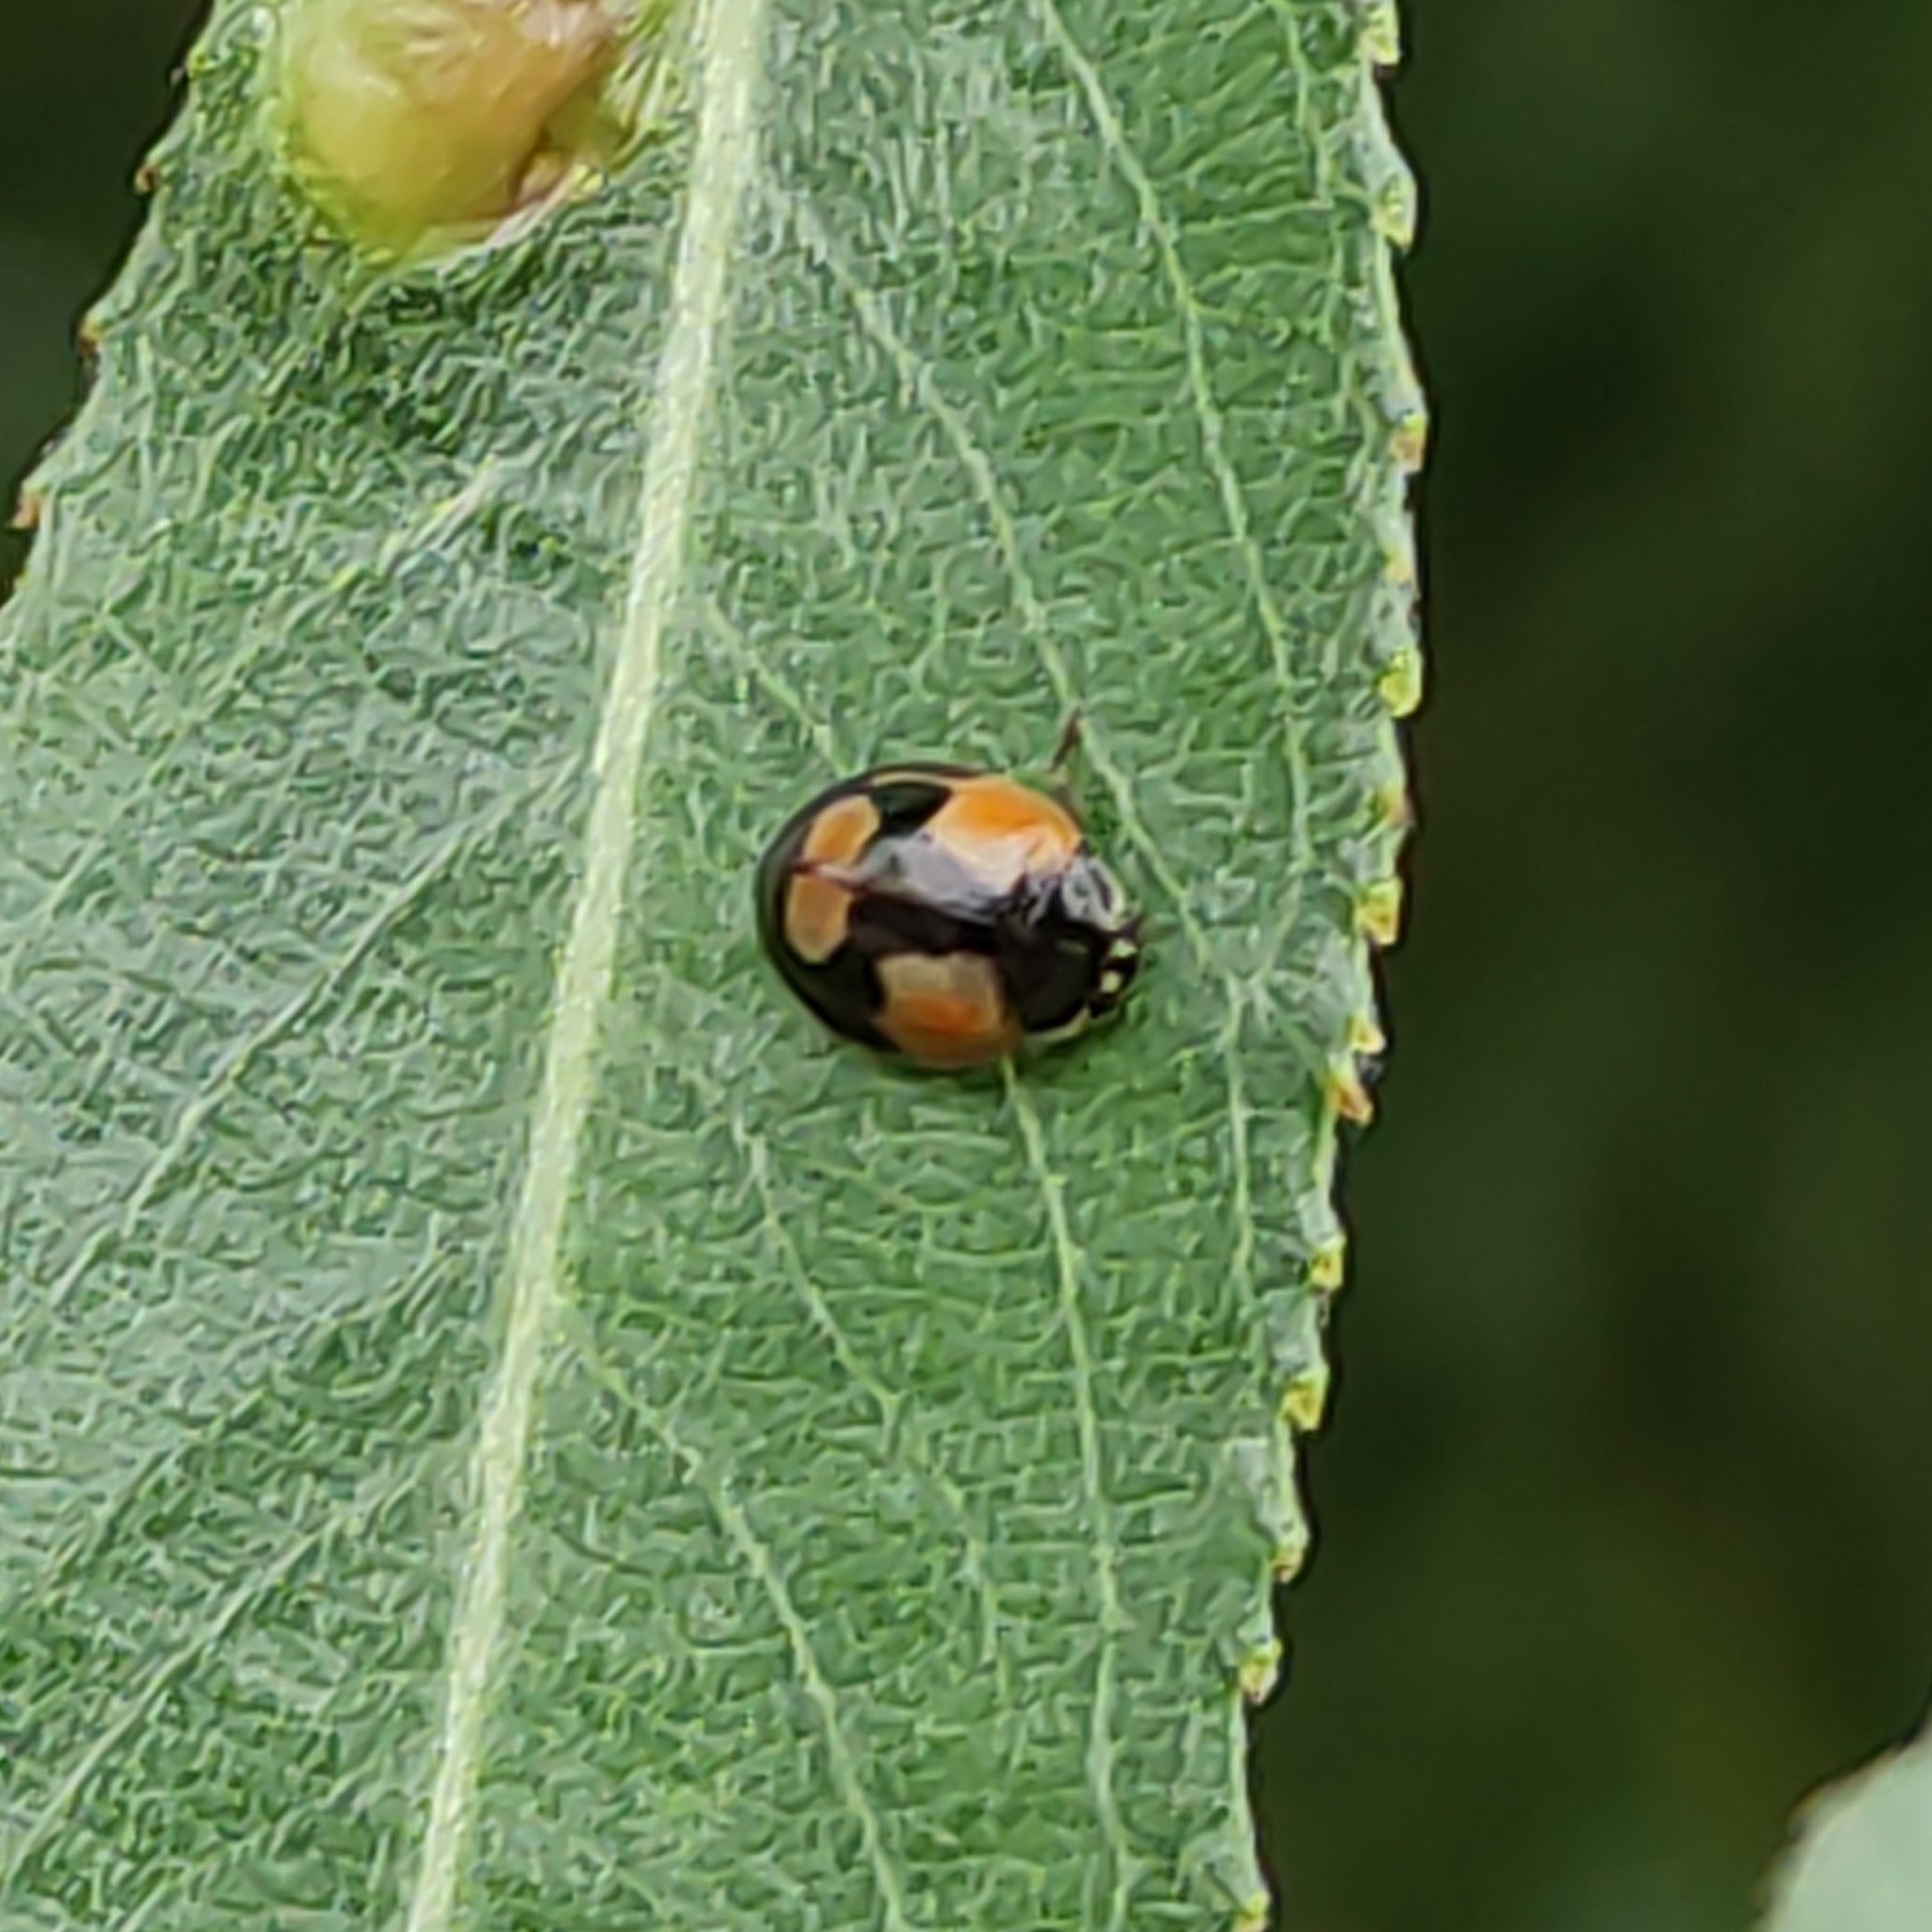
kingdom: Animalia
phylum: Arthropoda
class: Insecta
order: Coleoptera
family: Coccinellidae
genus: Adalia
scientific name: Adalia bipunctata
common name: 2-spot ladybird
